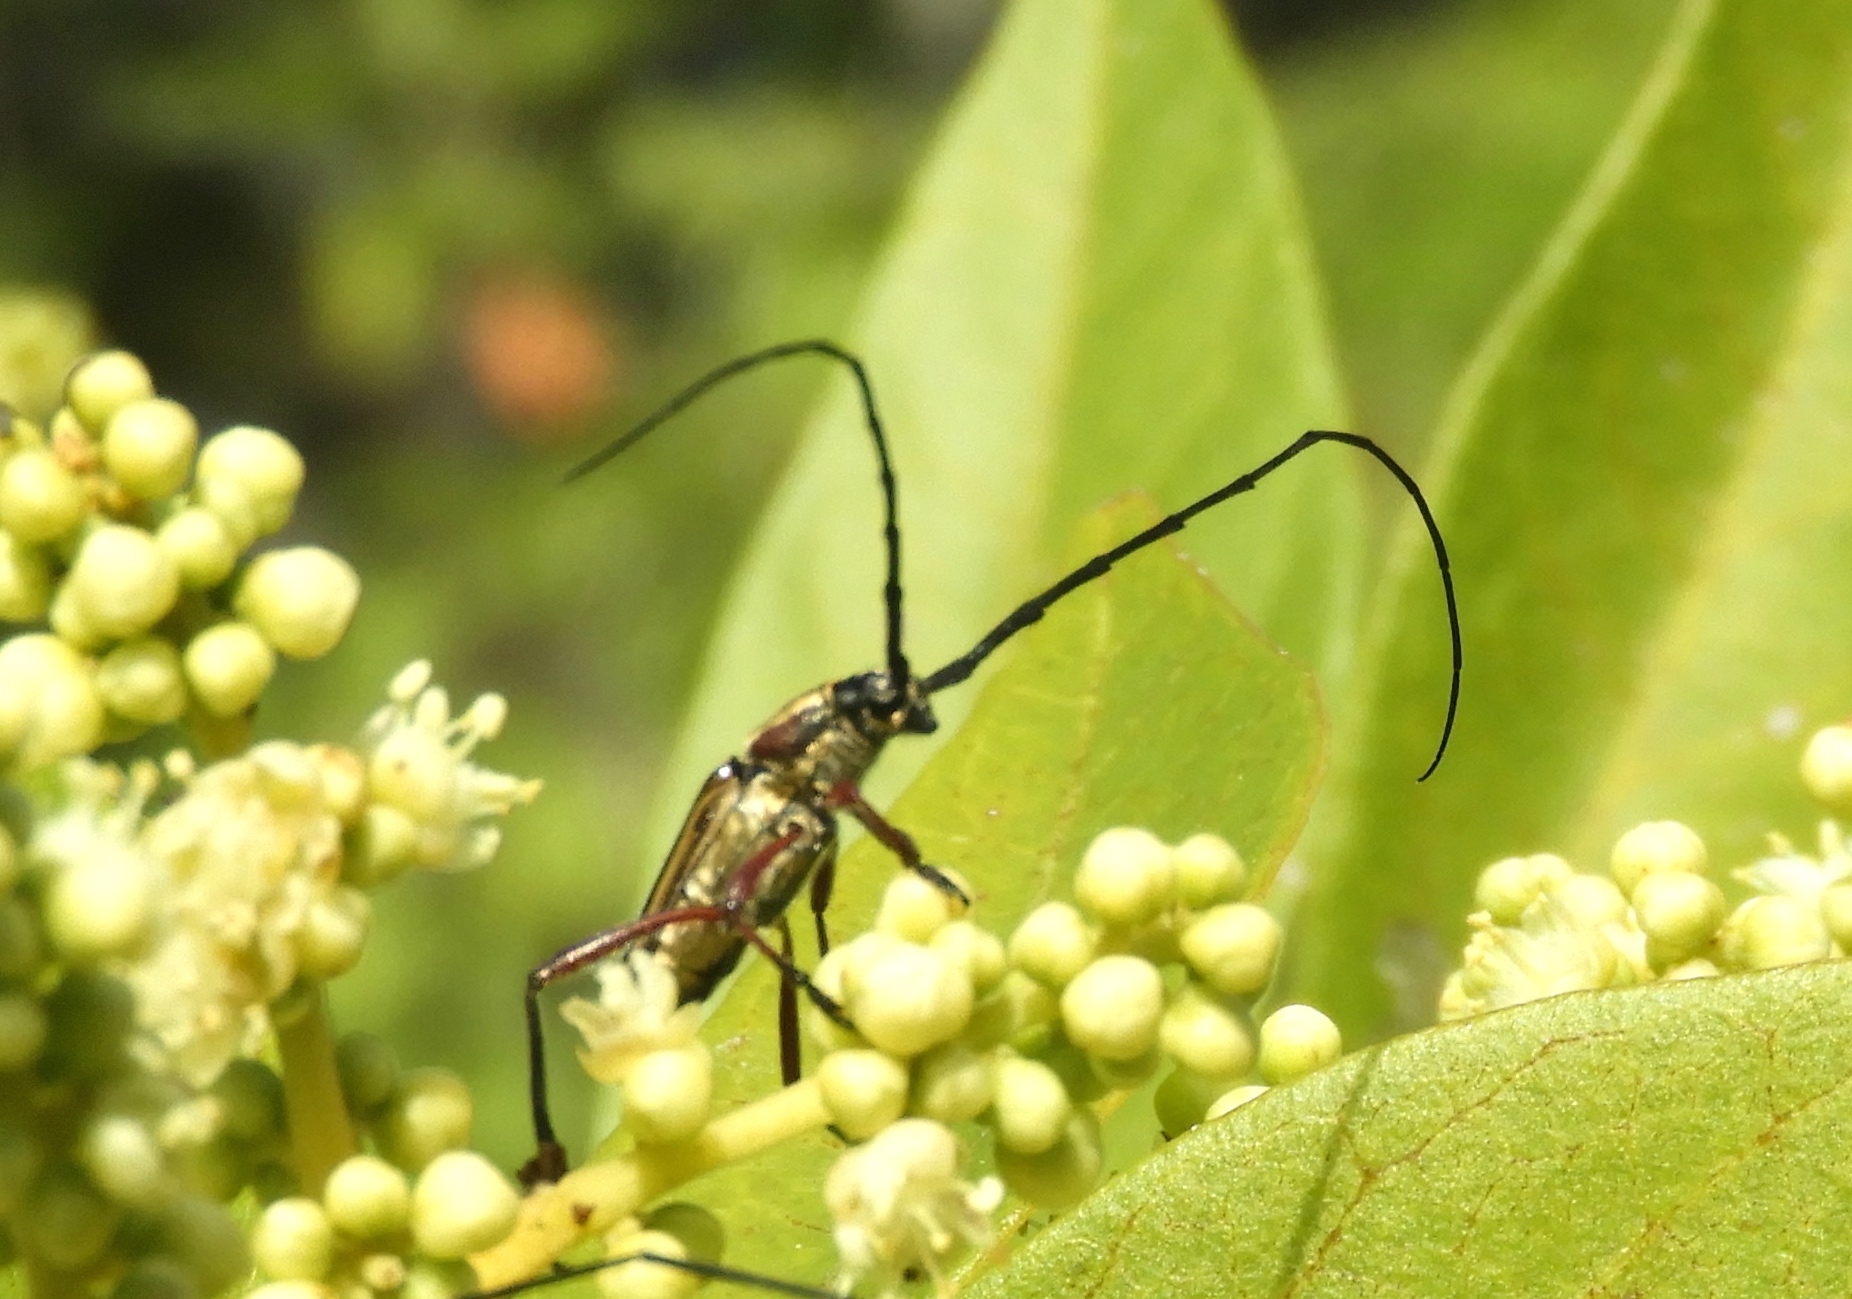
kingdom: Animalia
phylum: Arthropoda
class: Insecta
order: Coleoptera
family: Cerambycidae
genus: Sphaenothecus
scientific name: Sphaenothecus
